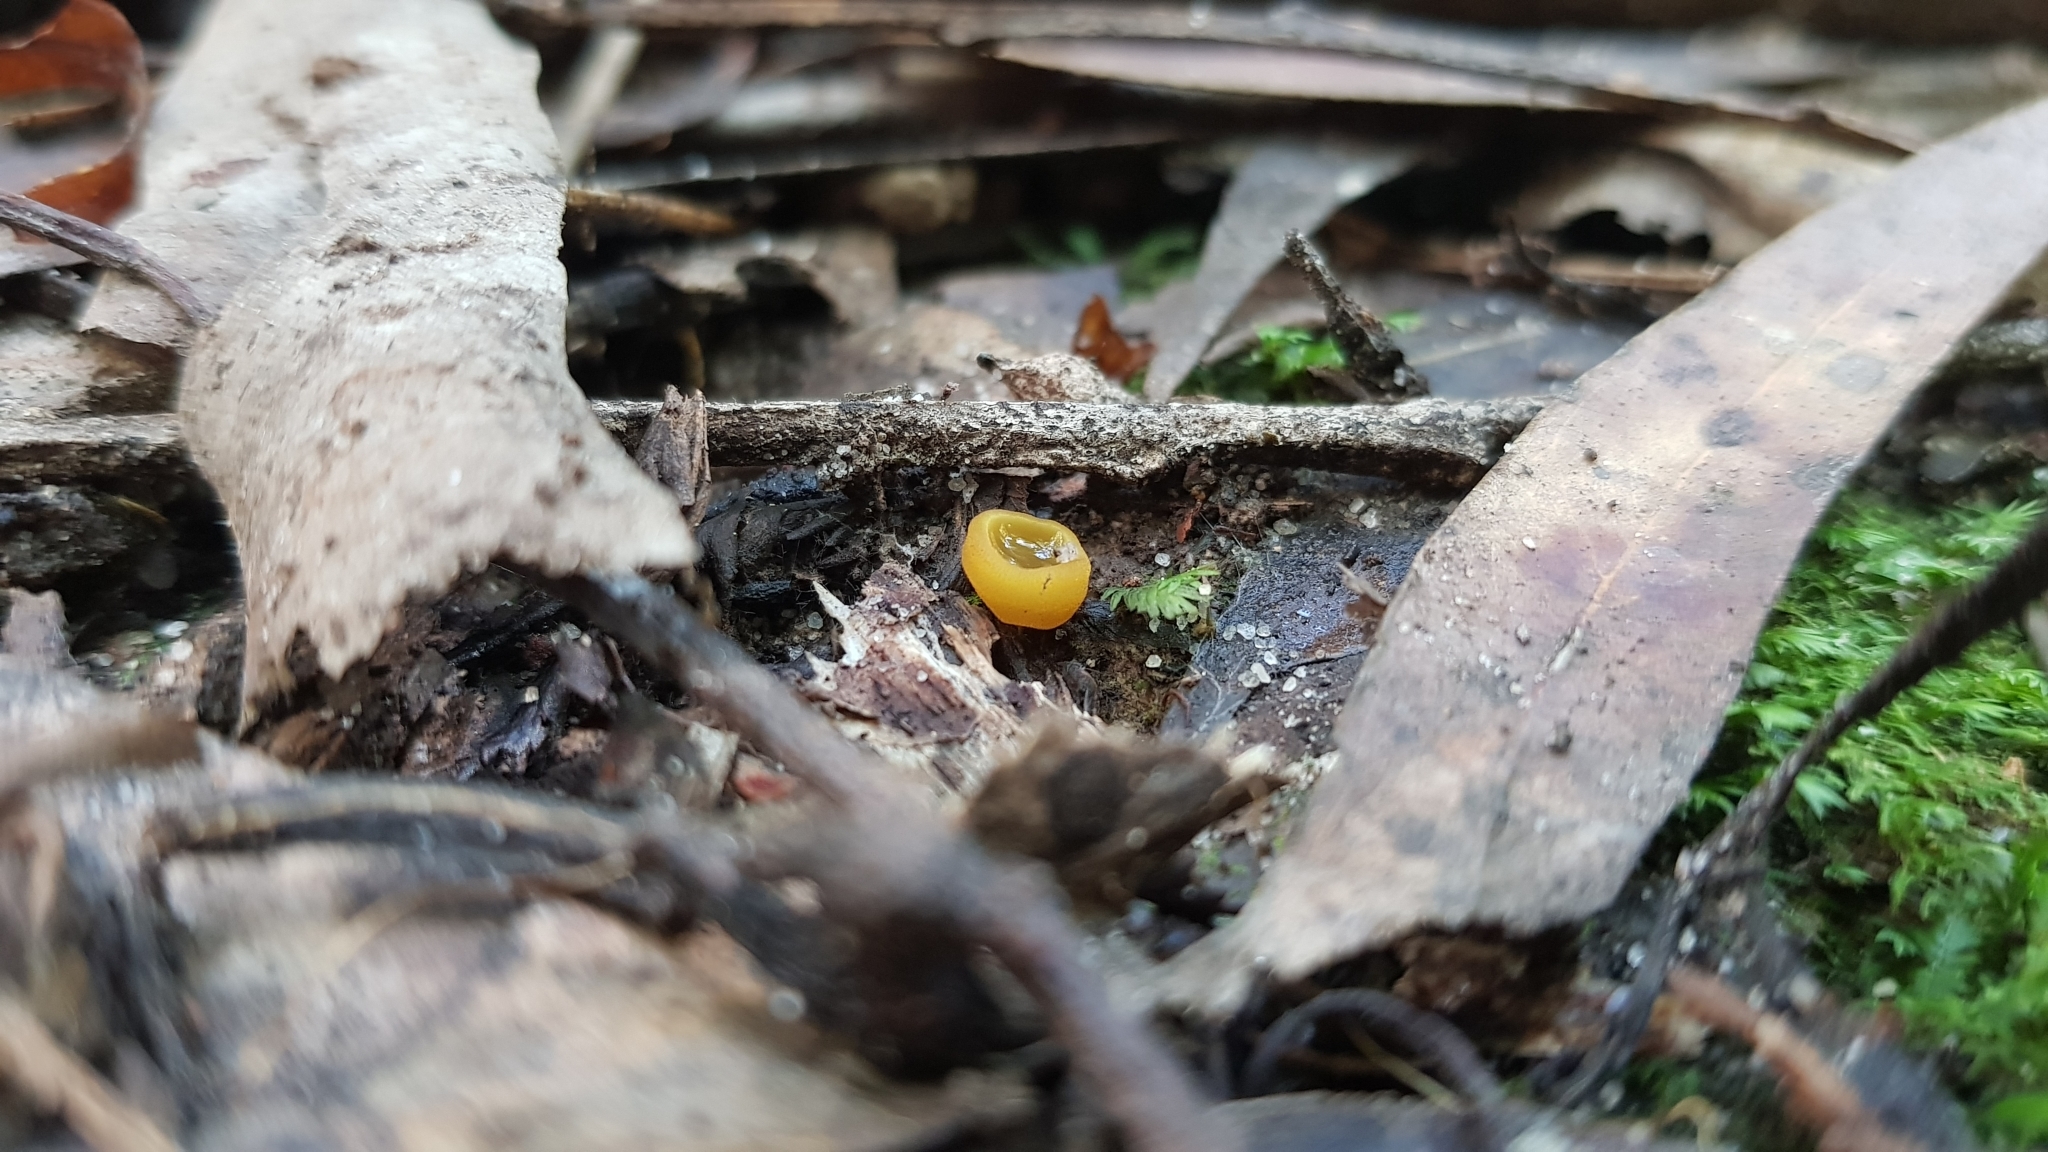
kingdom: Fungi
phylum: Ascomycota
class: Pezizomycetes
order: Pezizales
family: Pyronemataceae
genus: Aleurina
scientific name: Aleurina ferruginea
